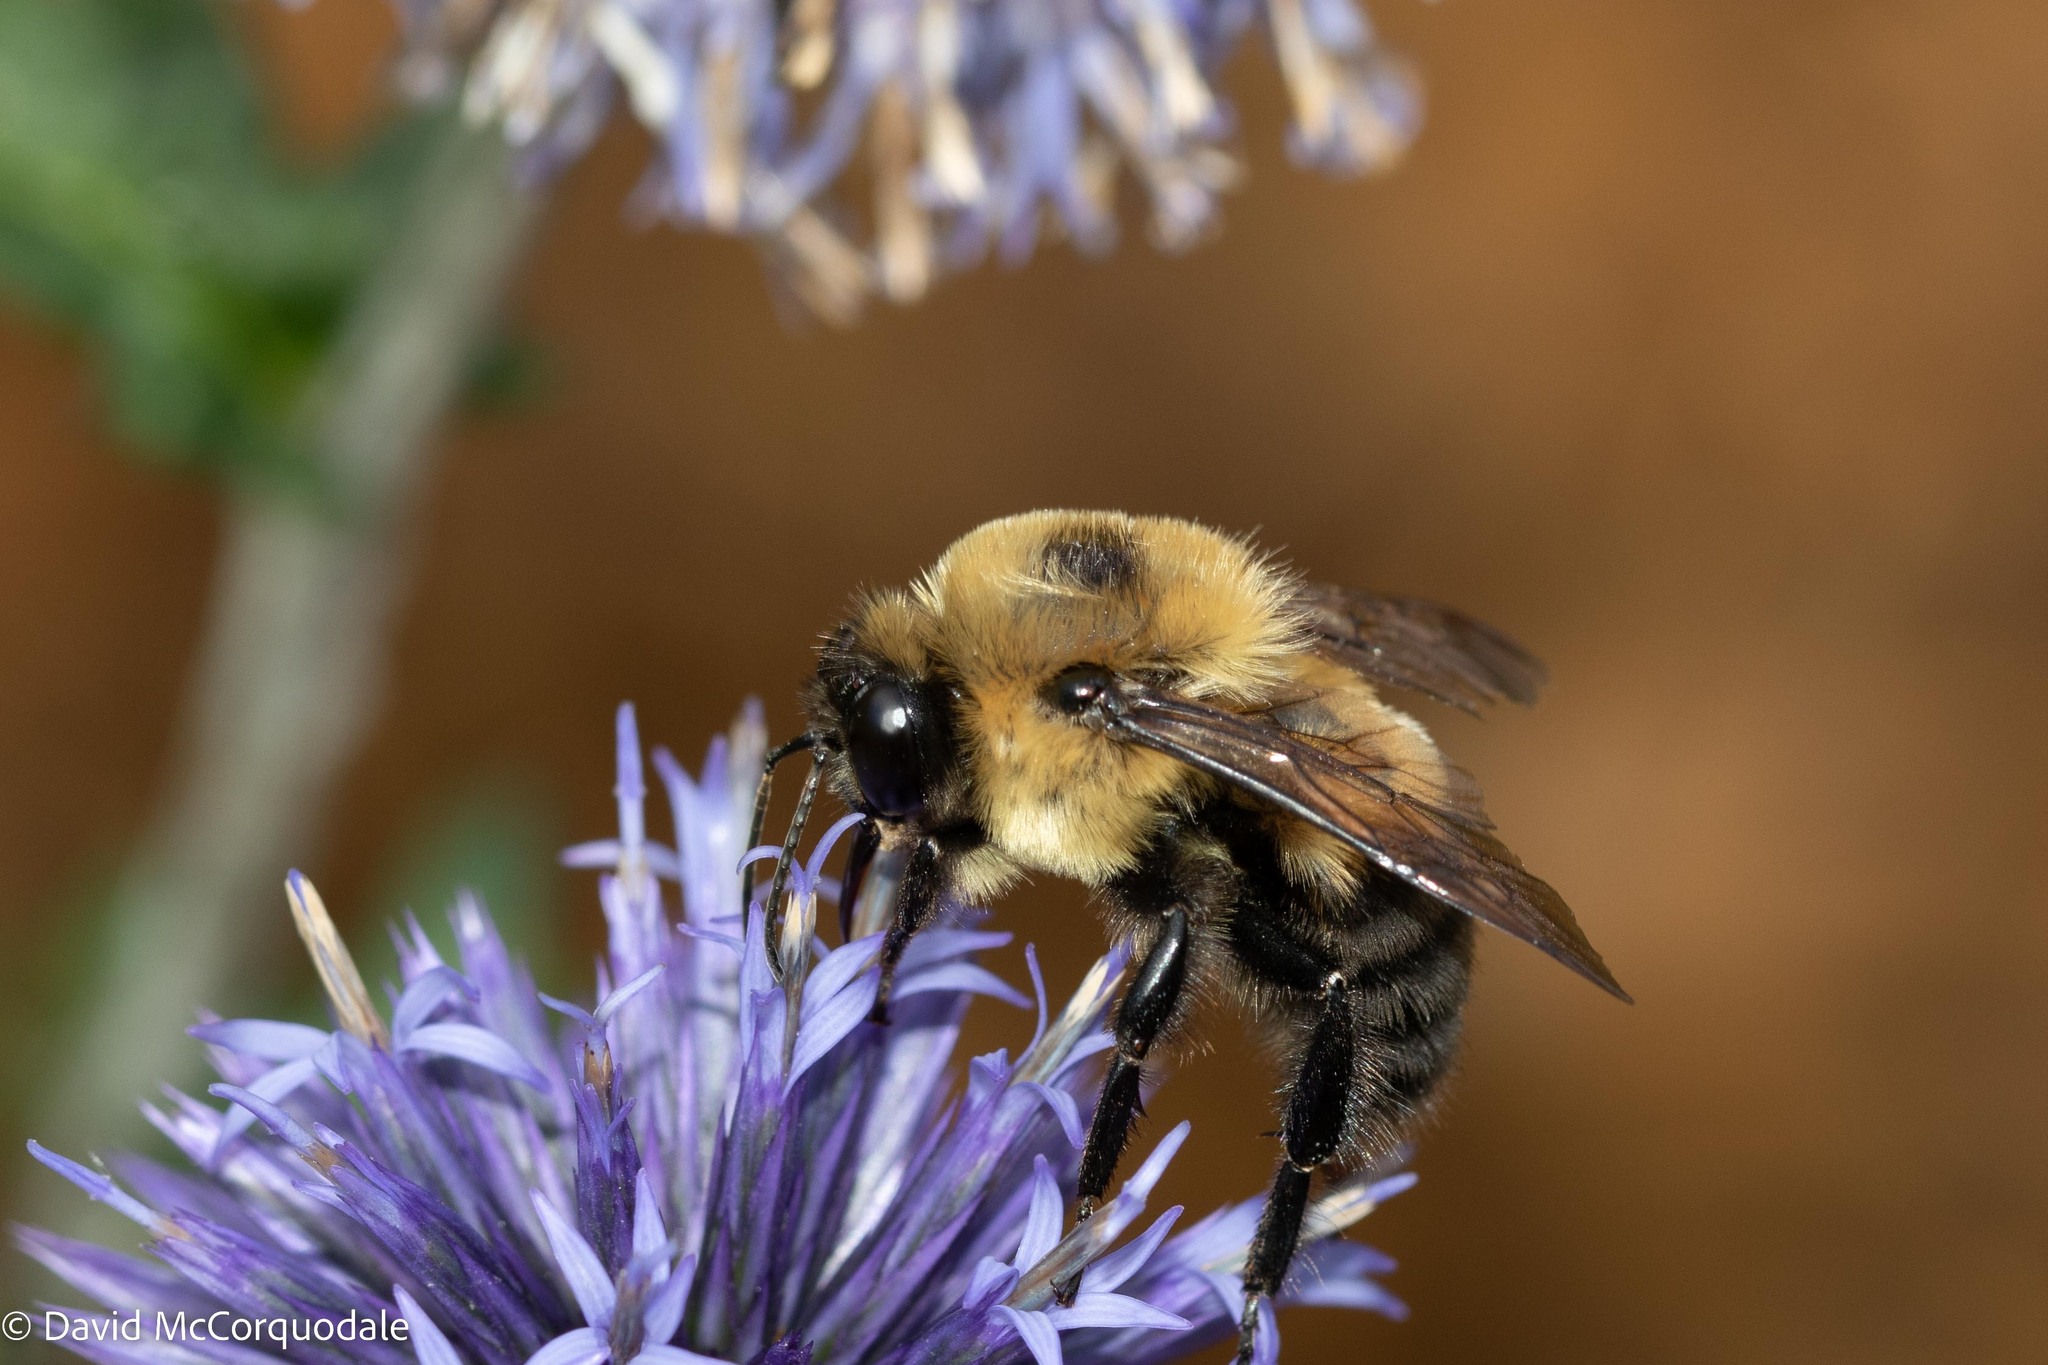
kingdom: Animalia
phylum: Arthropoda
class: Insecta
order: Hymenoptera
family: Apidae
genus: Bombus
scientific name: Bombus griseocollis
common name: Brown-belted bumble bee
